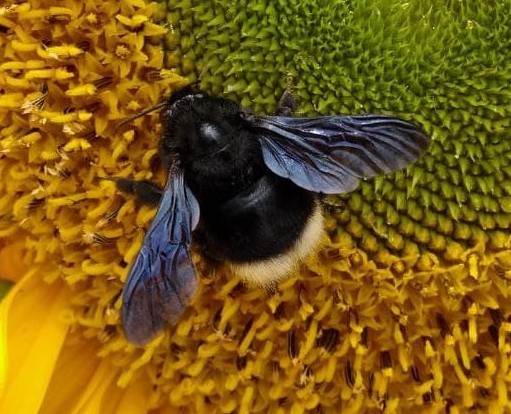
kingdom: Animalia
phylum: Arthropoda
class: Insecta
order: Hymenoptera
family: Apidae
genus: Bombus
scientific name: Bombus melaleucus
